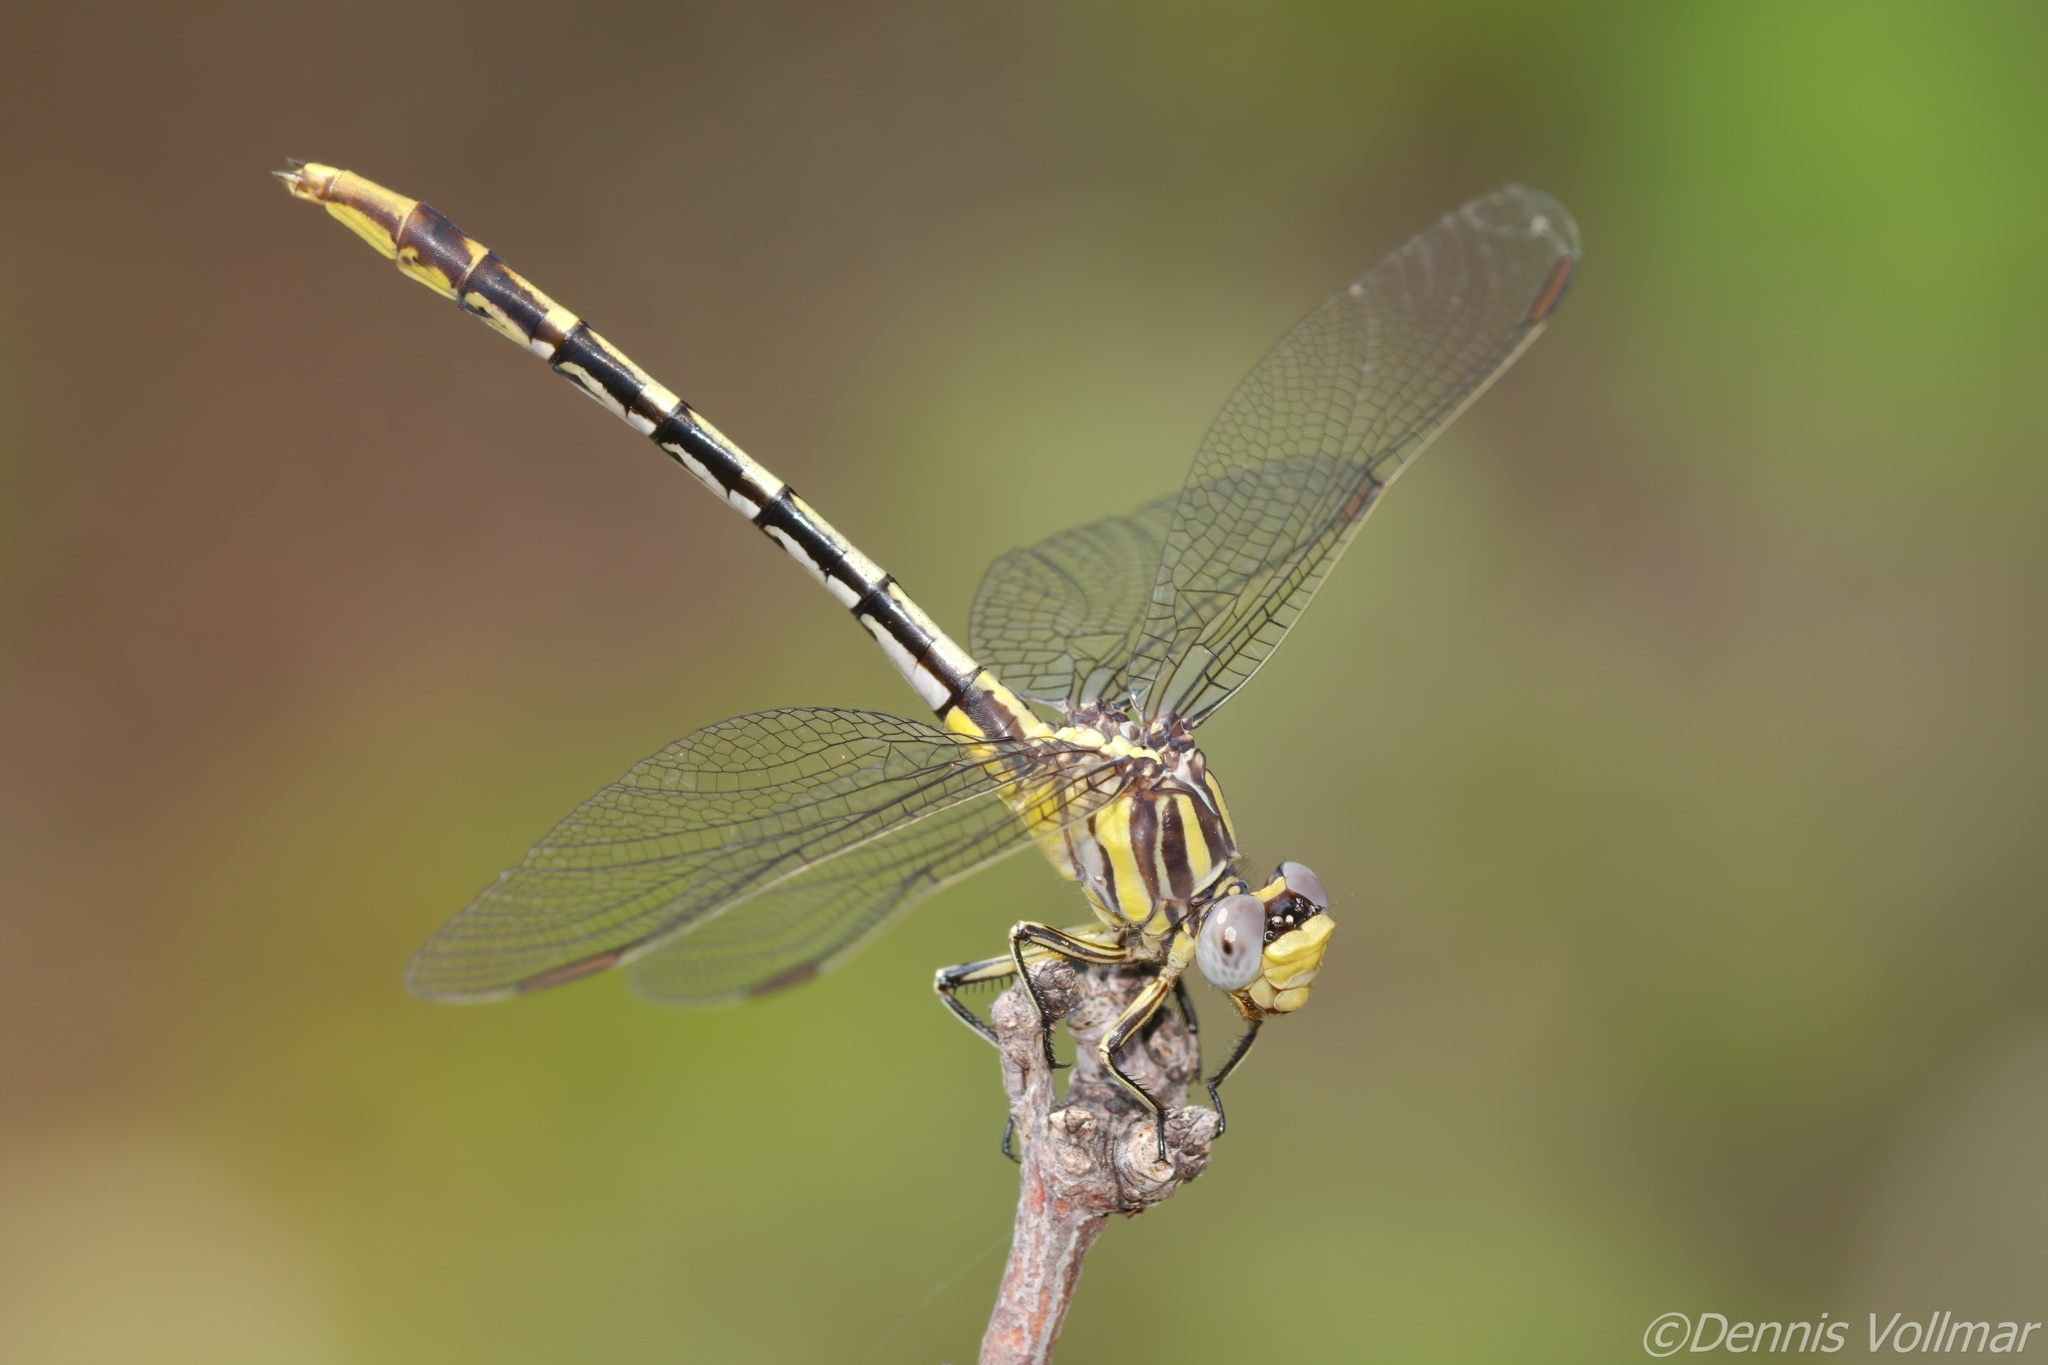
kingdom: Animalia
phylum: Arthropoda
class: Insecta
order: Odonata
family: Gomphidae
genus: Phanogomphus
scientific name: Phanogomphus militaris
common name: Sulphur-tipped clubtail
